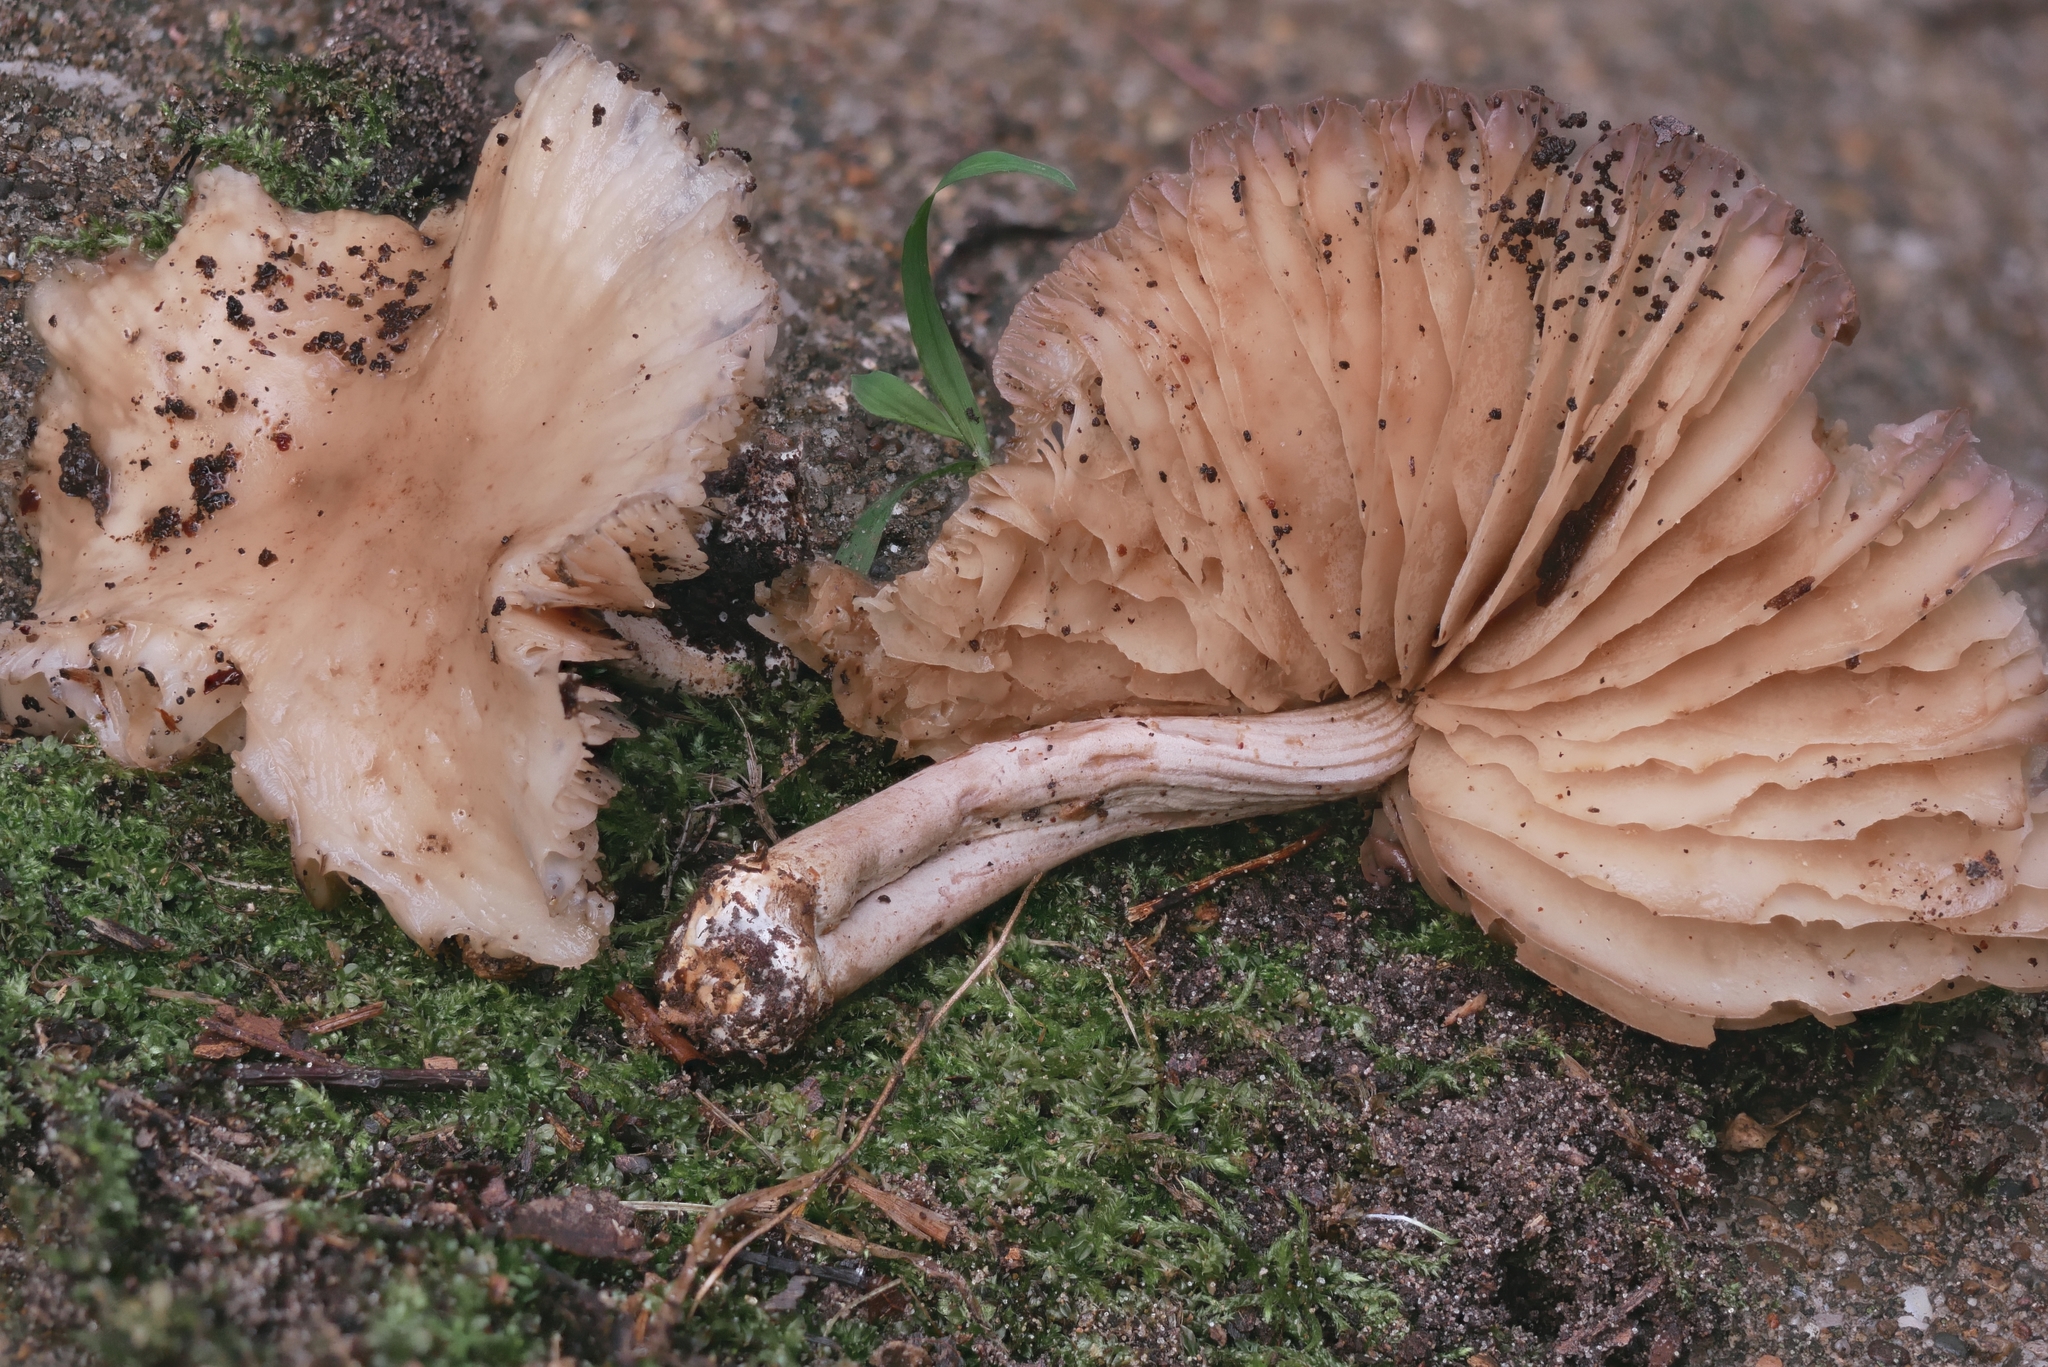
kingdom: Fungi
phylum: Basidiomycota
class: Agaricomycetes
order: Agaricales
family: Marasmiaceae
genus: Marasmius
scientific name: Marasmius nigrodiscus
